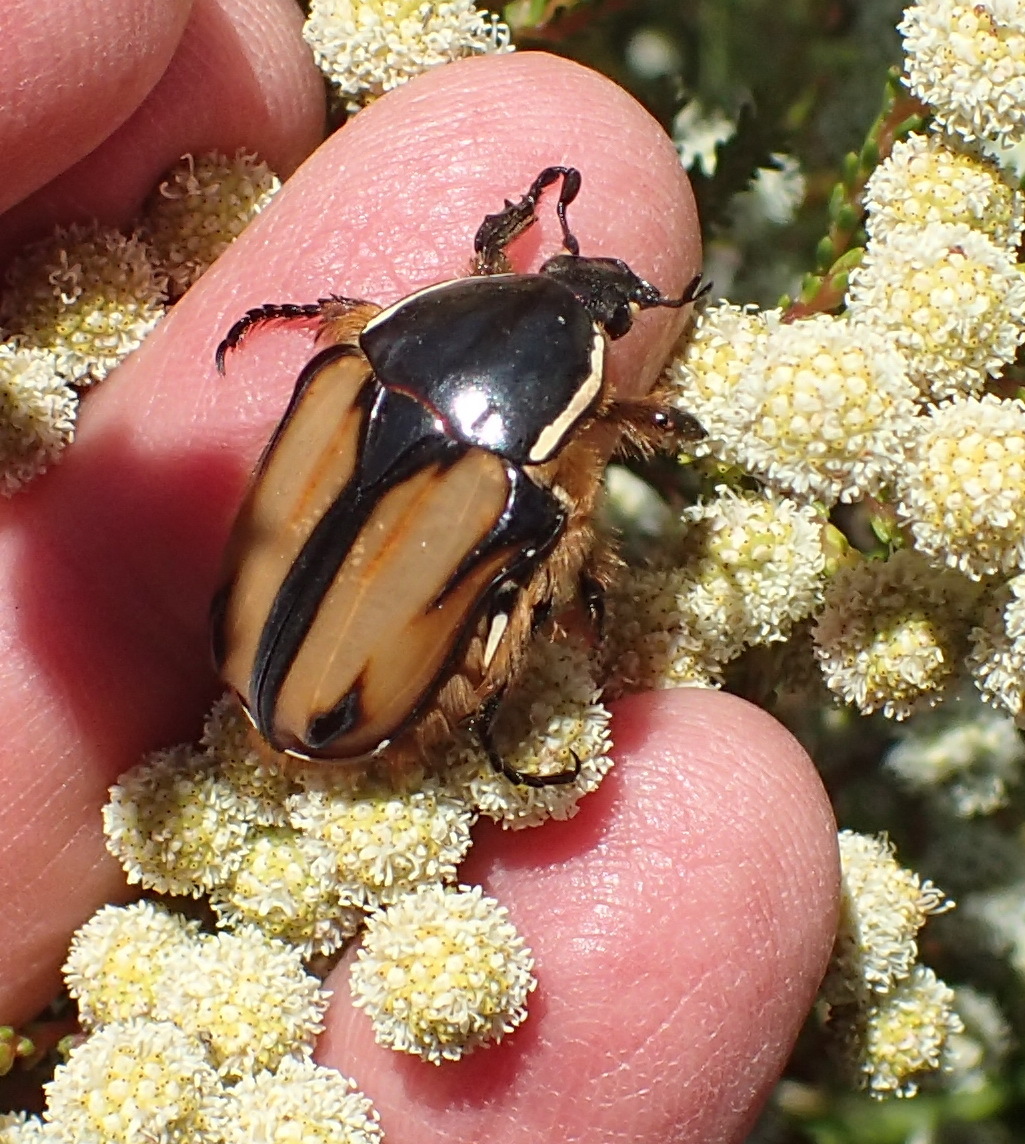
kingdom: Animalia
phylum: Arthropoda
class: Insecta
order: Coleoptera
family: Scarabaeidae
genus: Trichostetha
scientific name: Trichostetha signata
